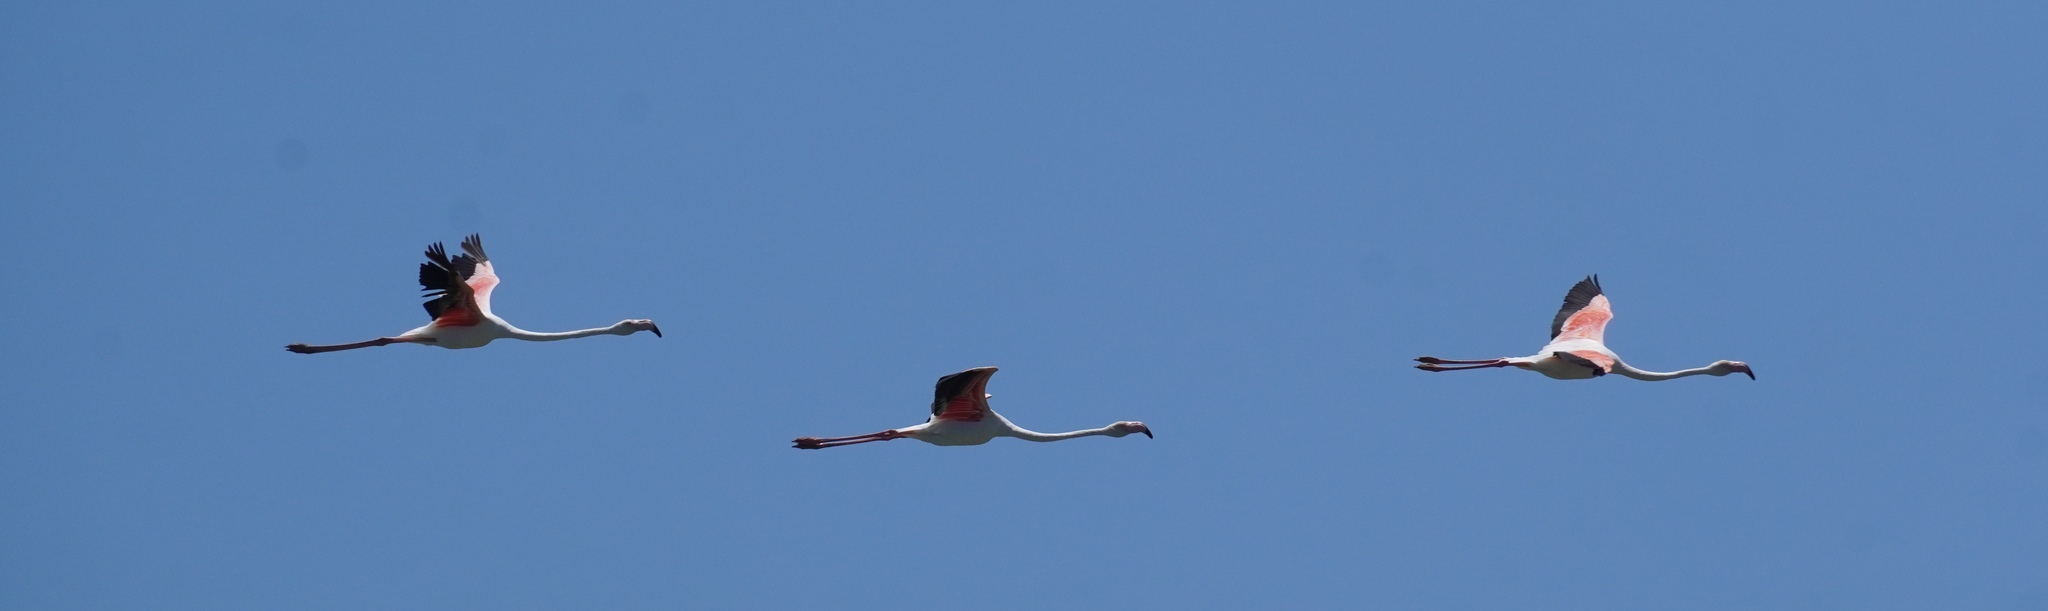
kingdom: Animalia
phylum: Chordata
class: Aves
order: Phoenicopteriformes
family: Phoenicopteridae
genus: Phoenicopterus
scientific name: Phoenicopterus roseus
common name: Greater flamingo
